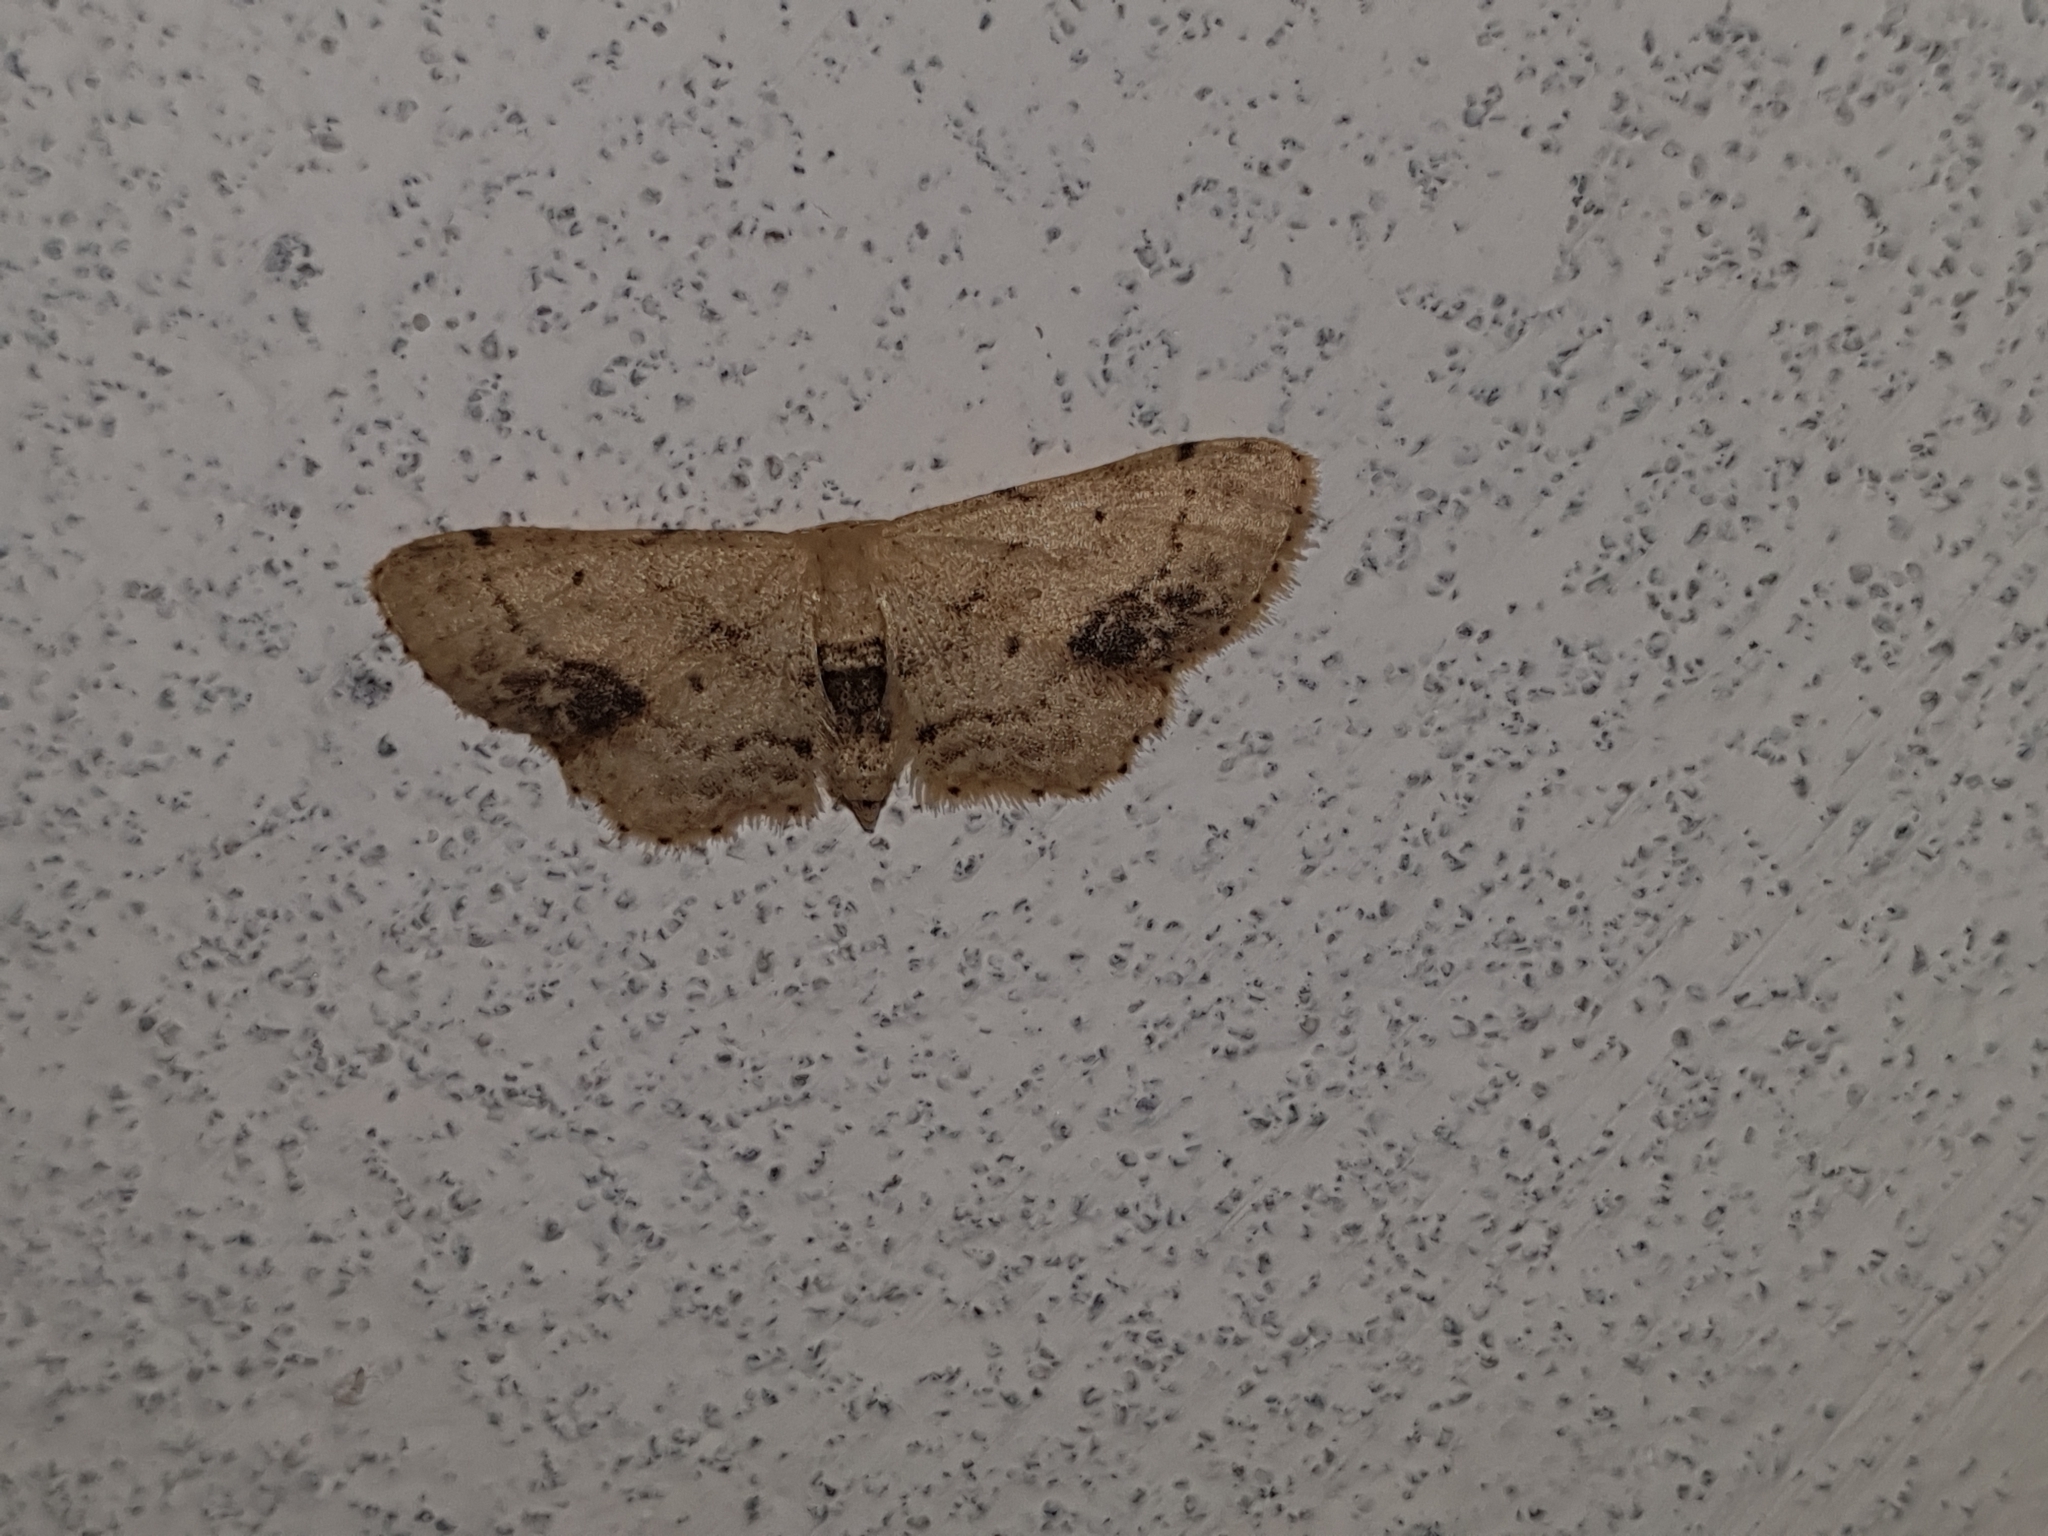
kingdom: Animalia
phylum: Arthropoda
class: Insecta
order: Lepidoptera
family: Geometridae
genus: Idaea
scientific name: Idaea dimidiata
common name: Single-dotted wave
